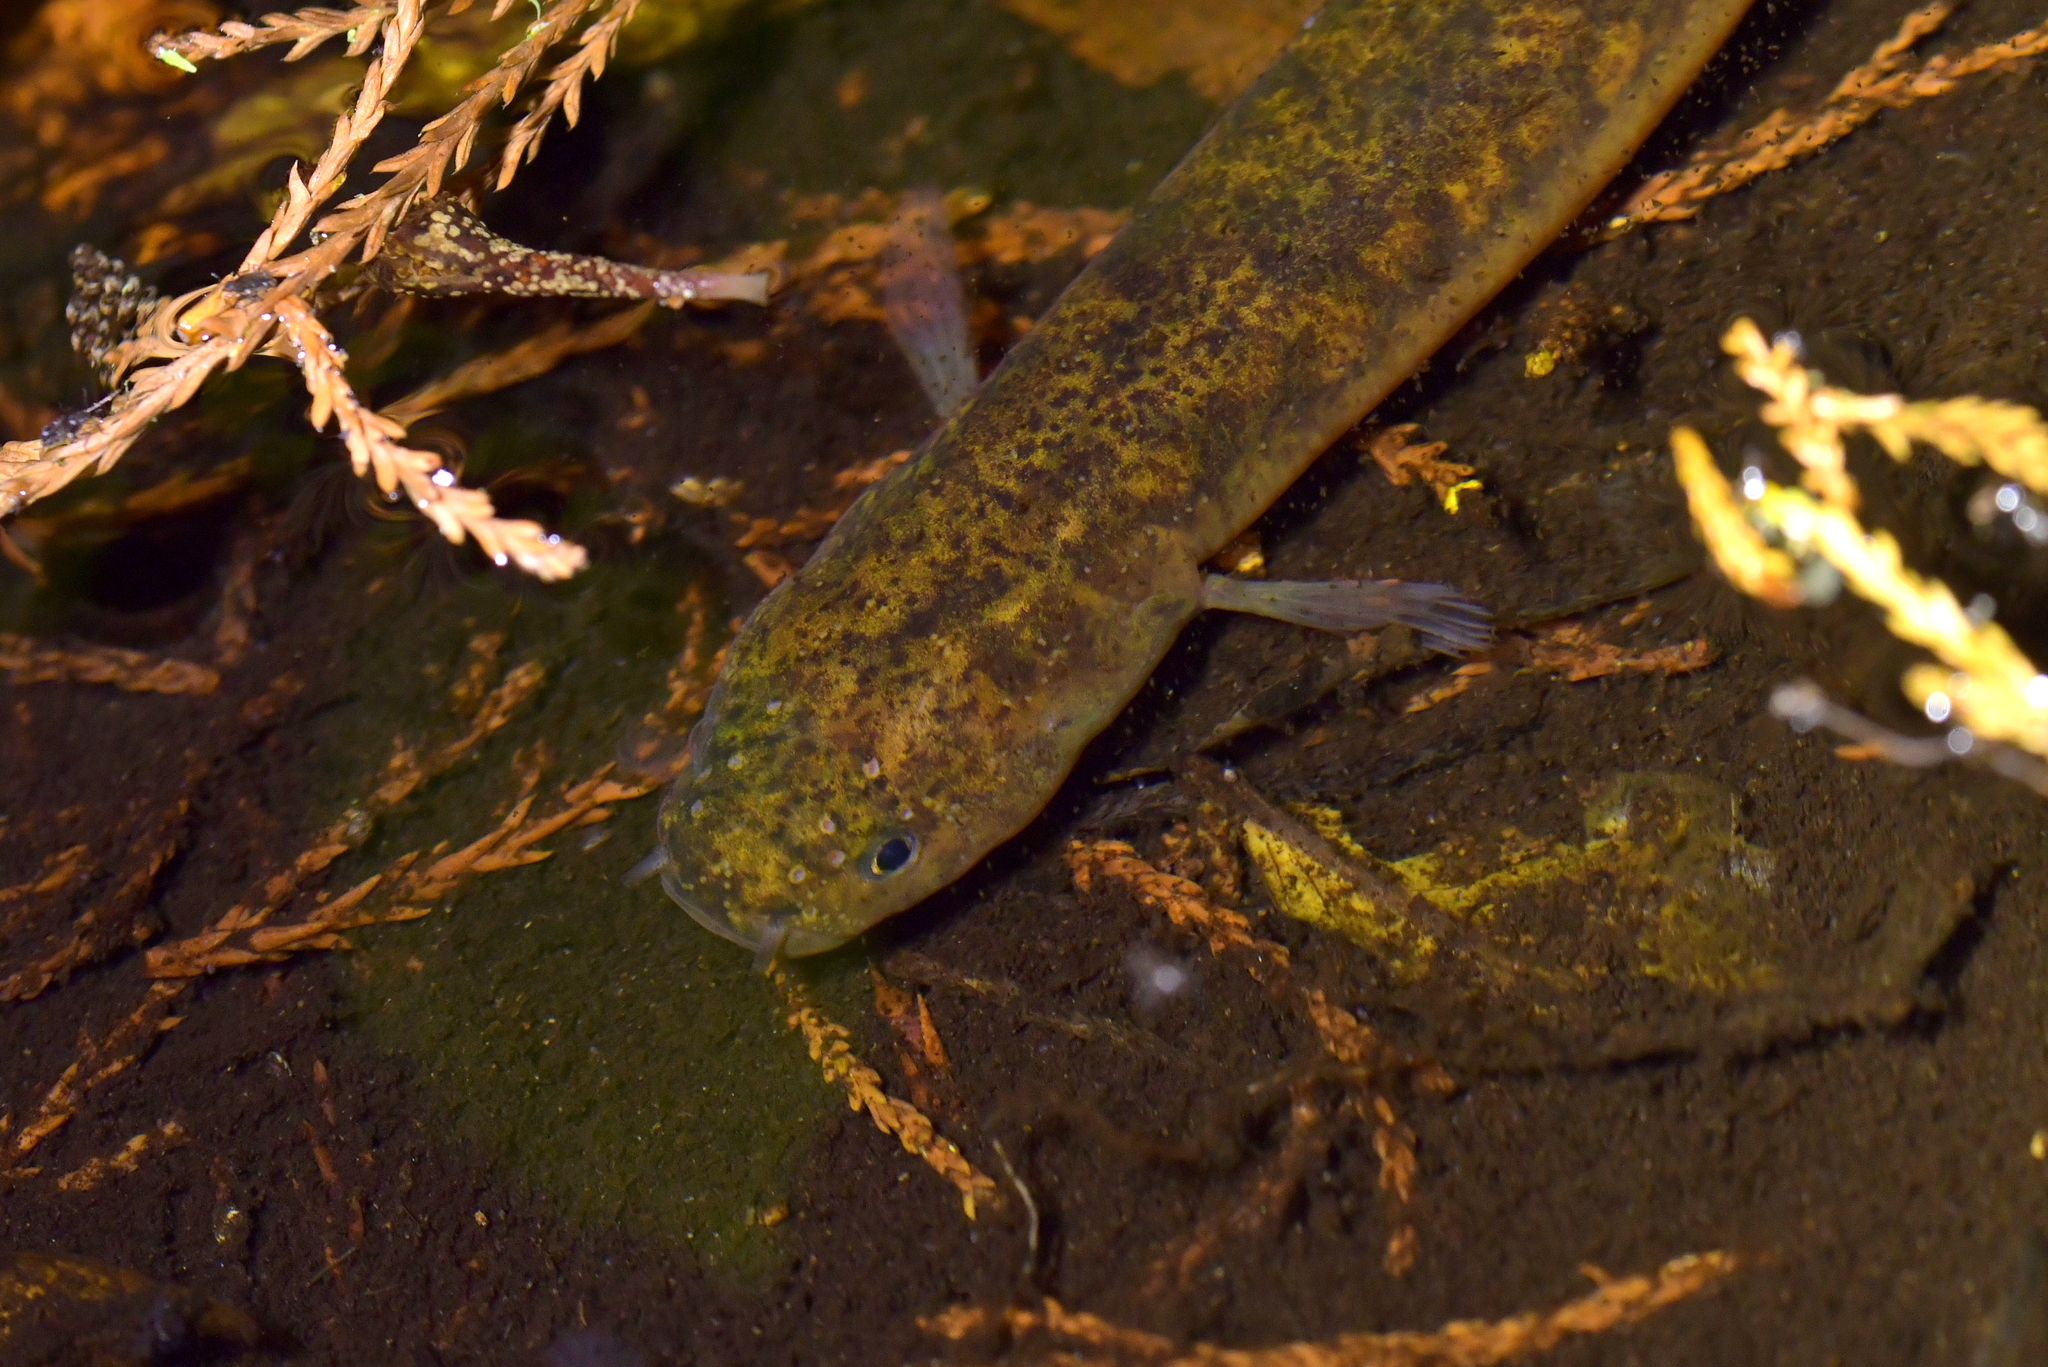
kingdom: Animalia
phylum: Chordata
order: Osmeriformes
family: Galaxiidae
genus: Neochanna
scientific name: Neochanna apoda
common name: Brown mudfish
